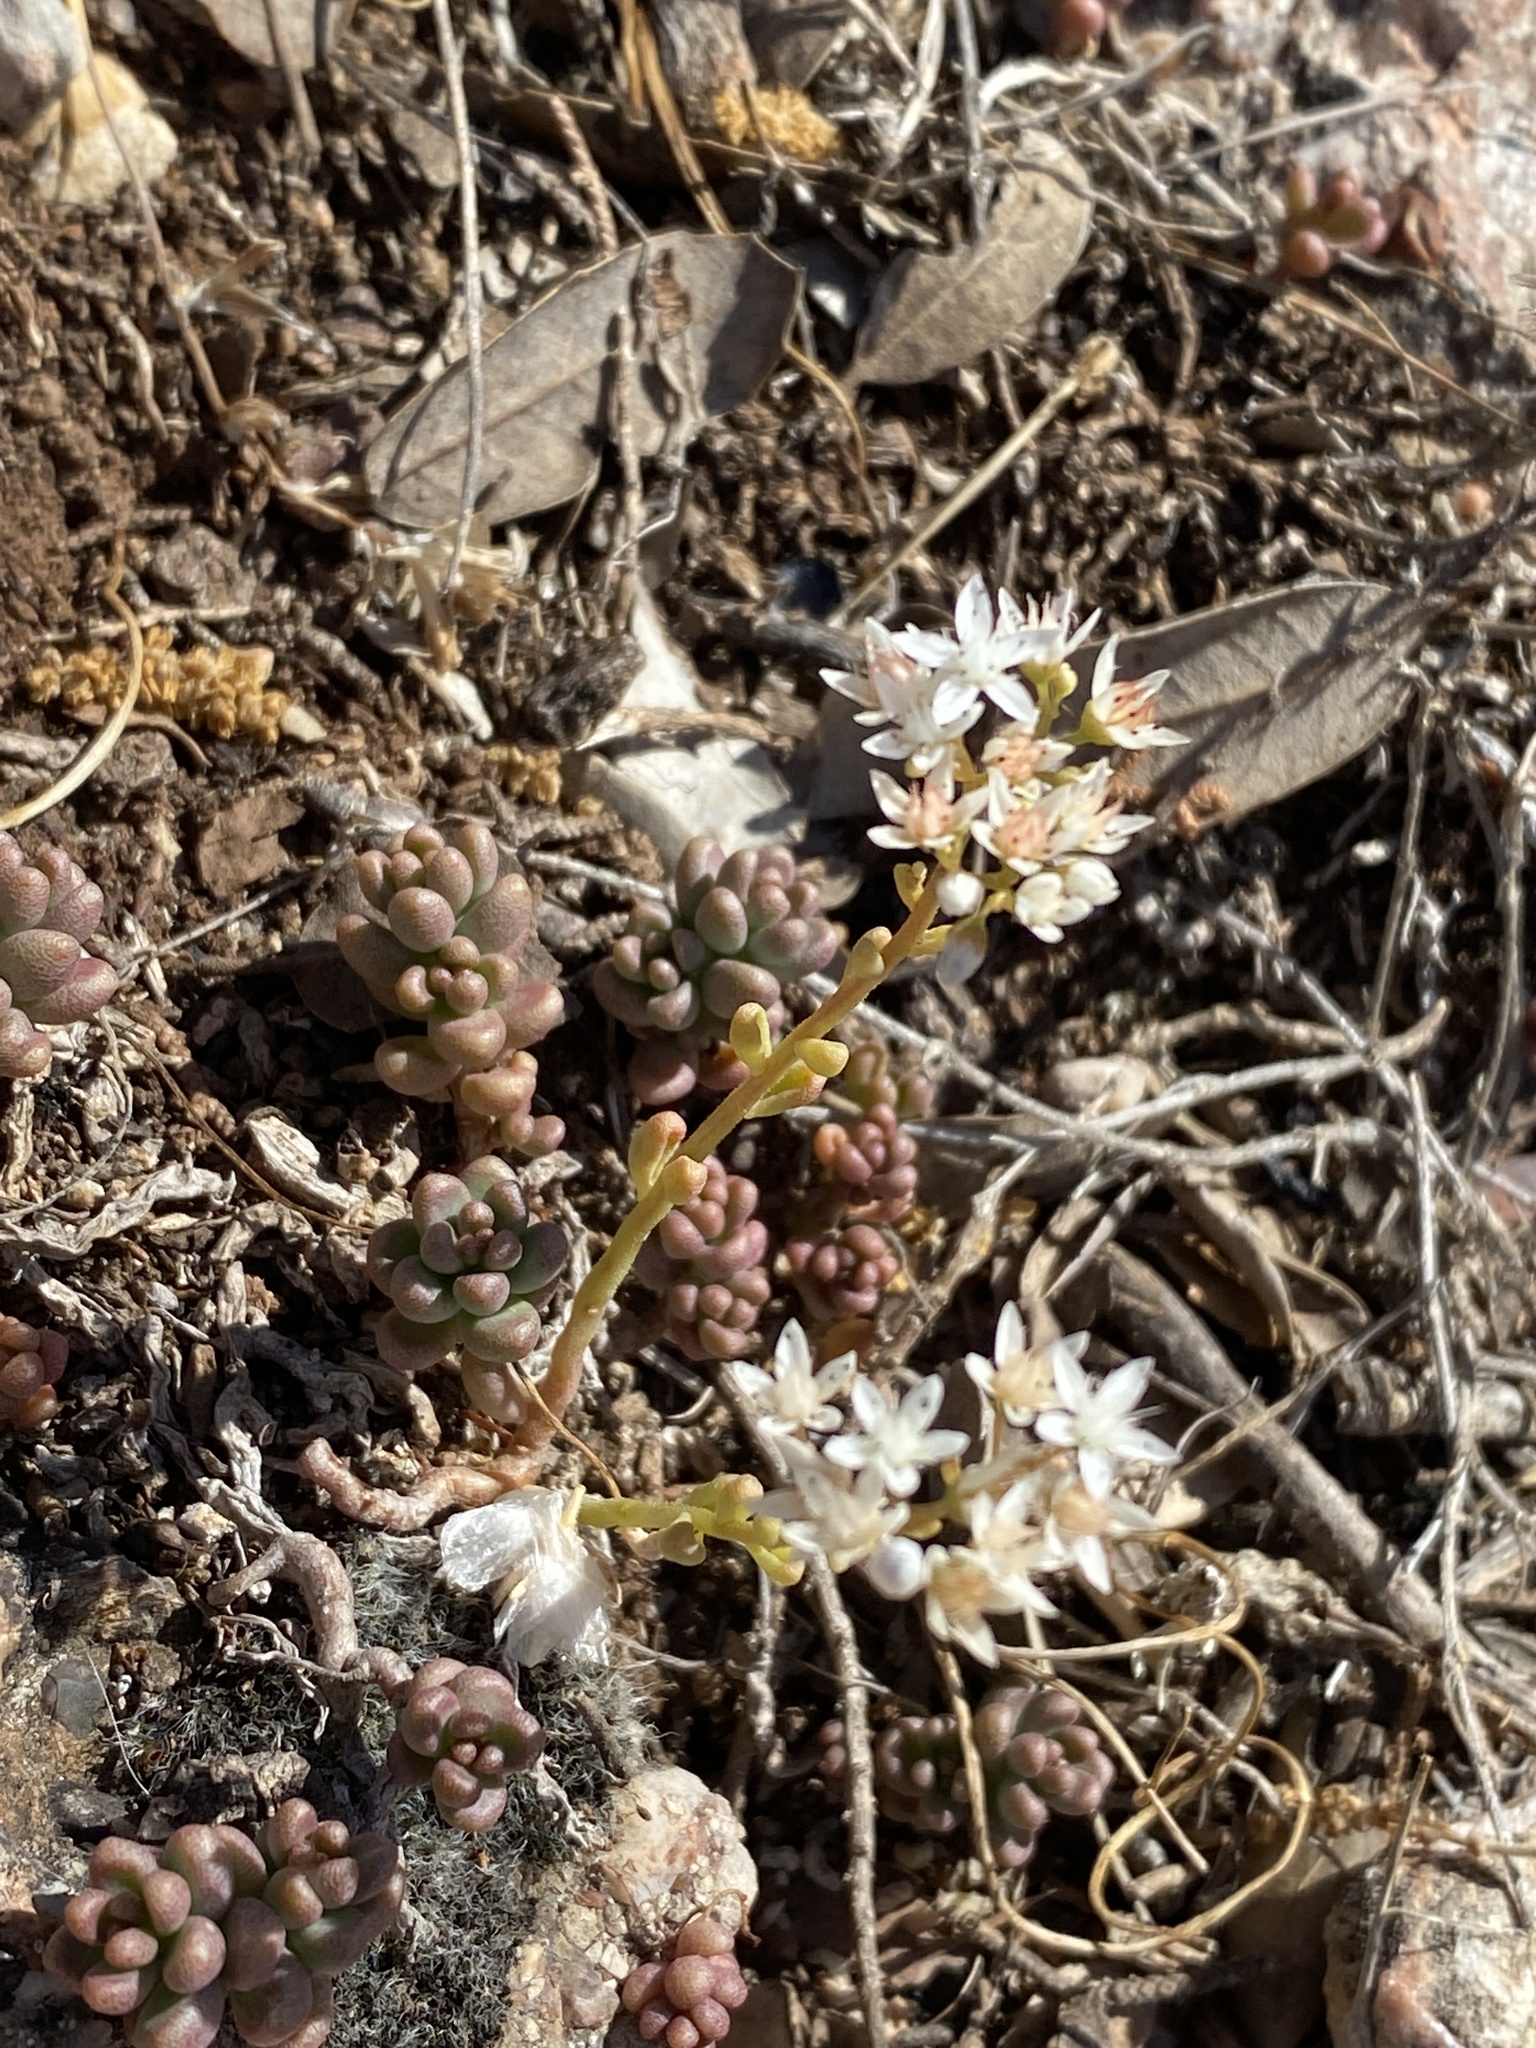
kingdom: Plantae
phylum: Tracheophyta
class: Magnoliopsida
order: Saxifragales
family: Crassulaceae
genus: Sedum
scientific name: Sedum album
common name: White stonecrop
